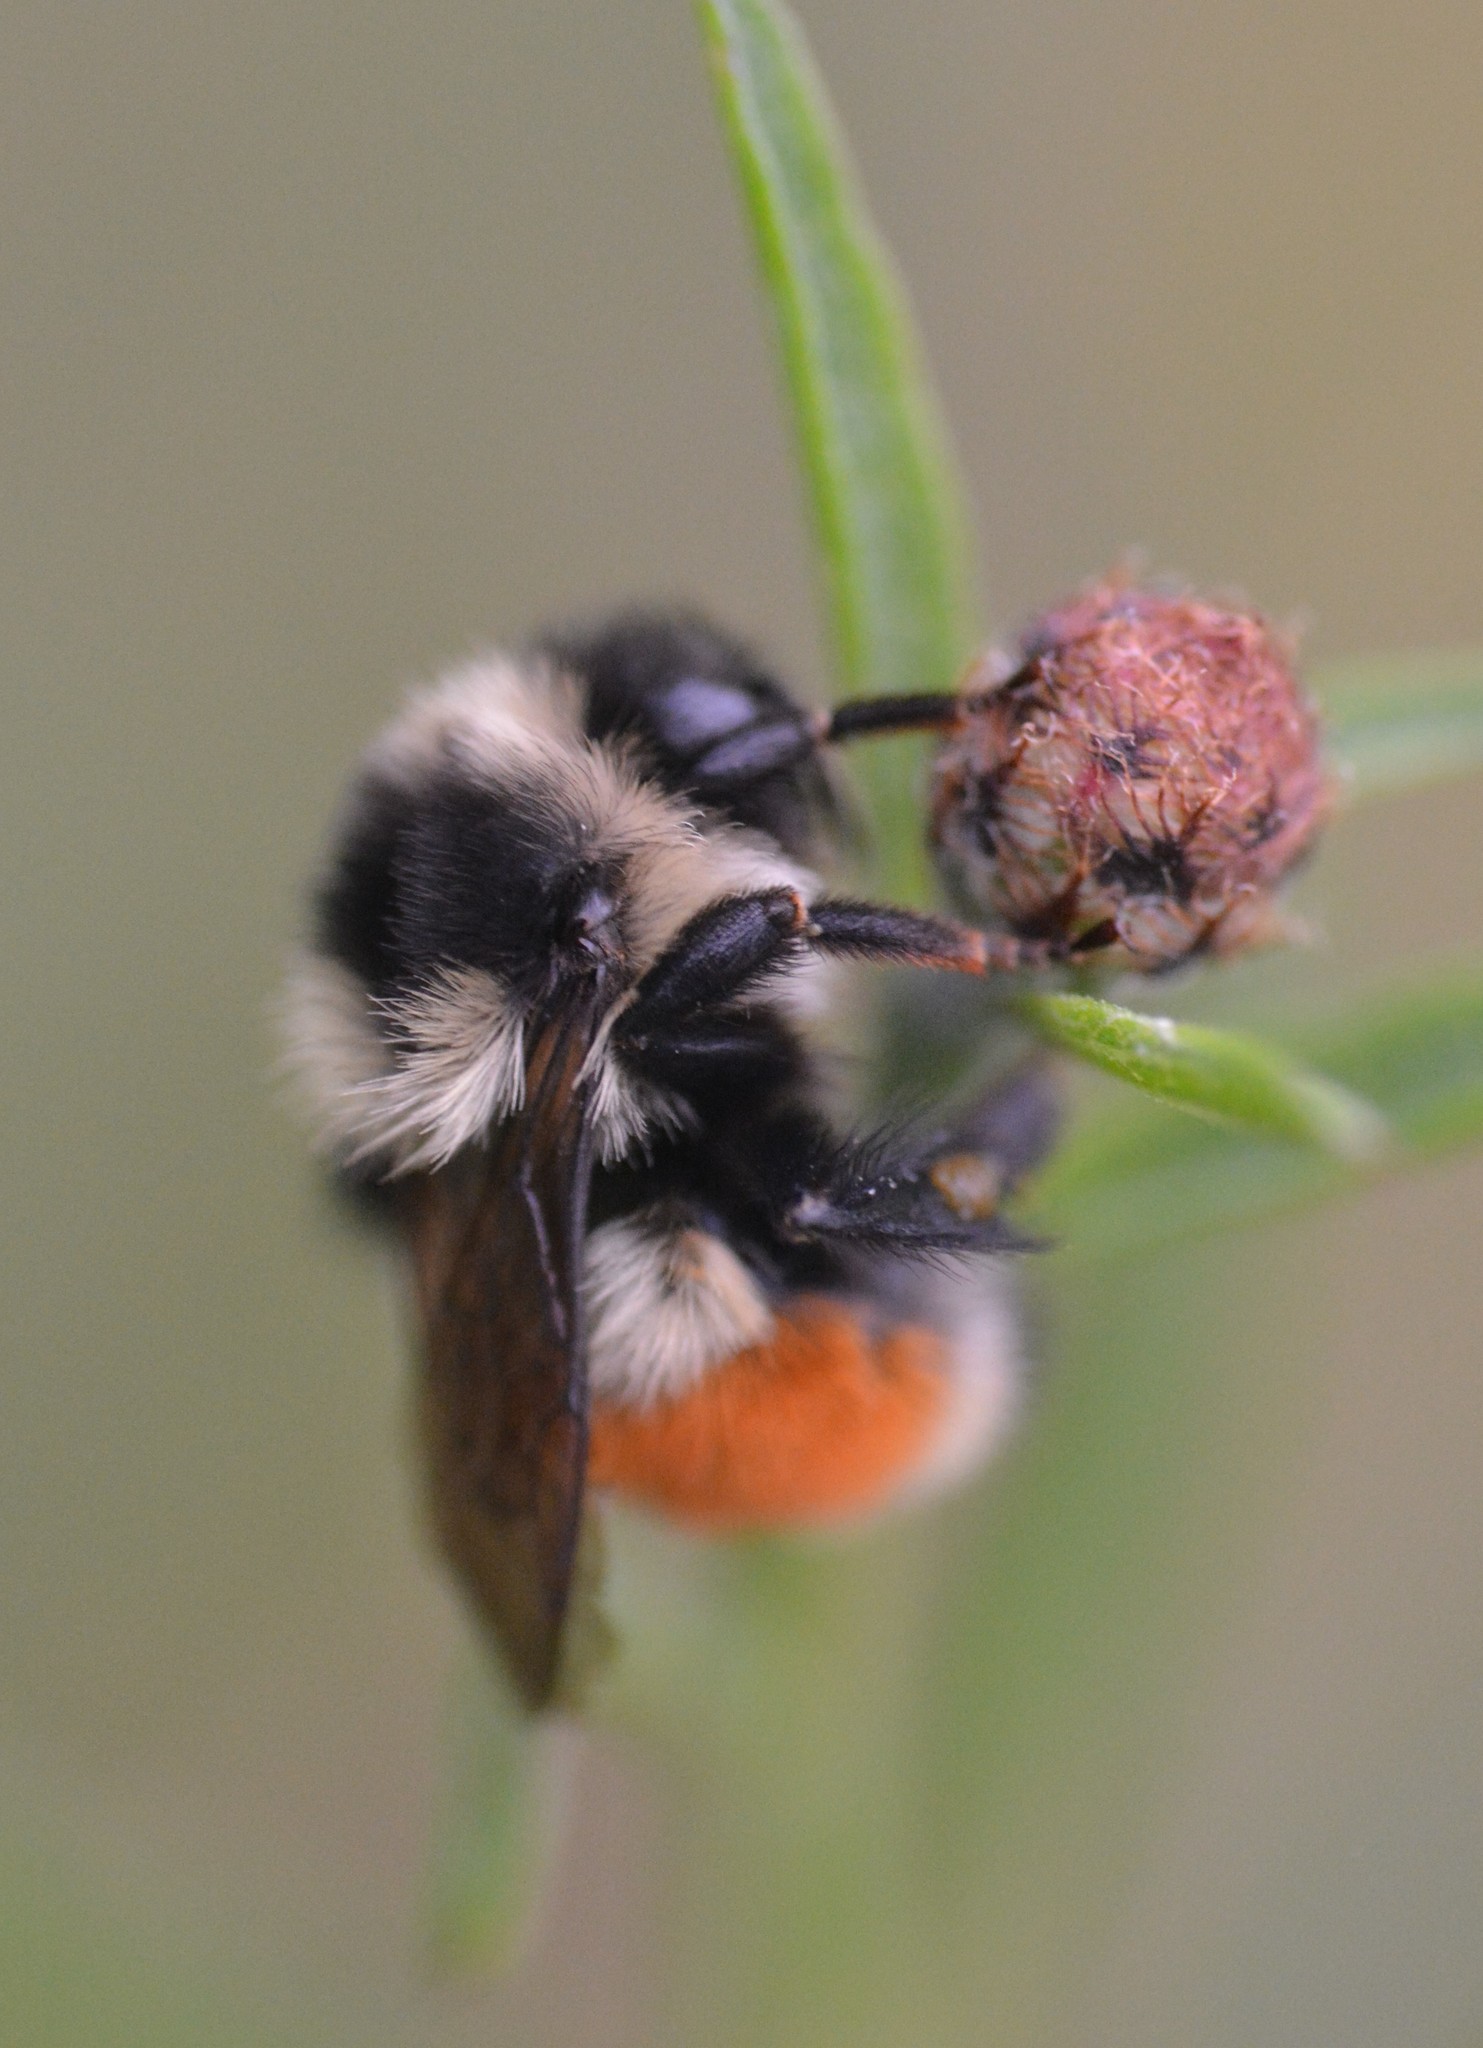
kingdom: Animalia
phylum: Arthropoda
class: Insecta
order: Hymenoptera
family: Apidae
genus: Bombus
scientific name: Bombus ternarius
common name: Tri-colored bumble bee
